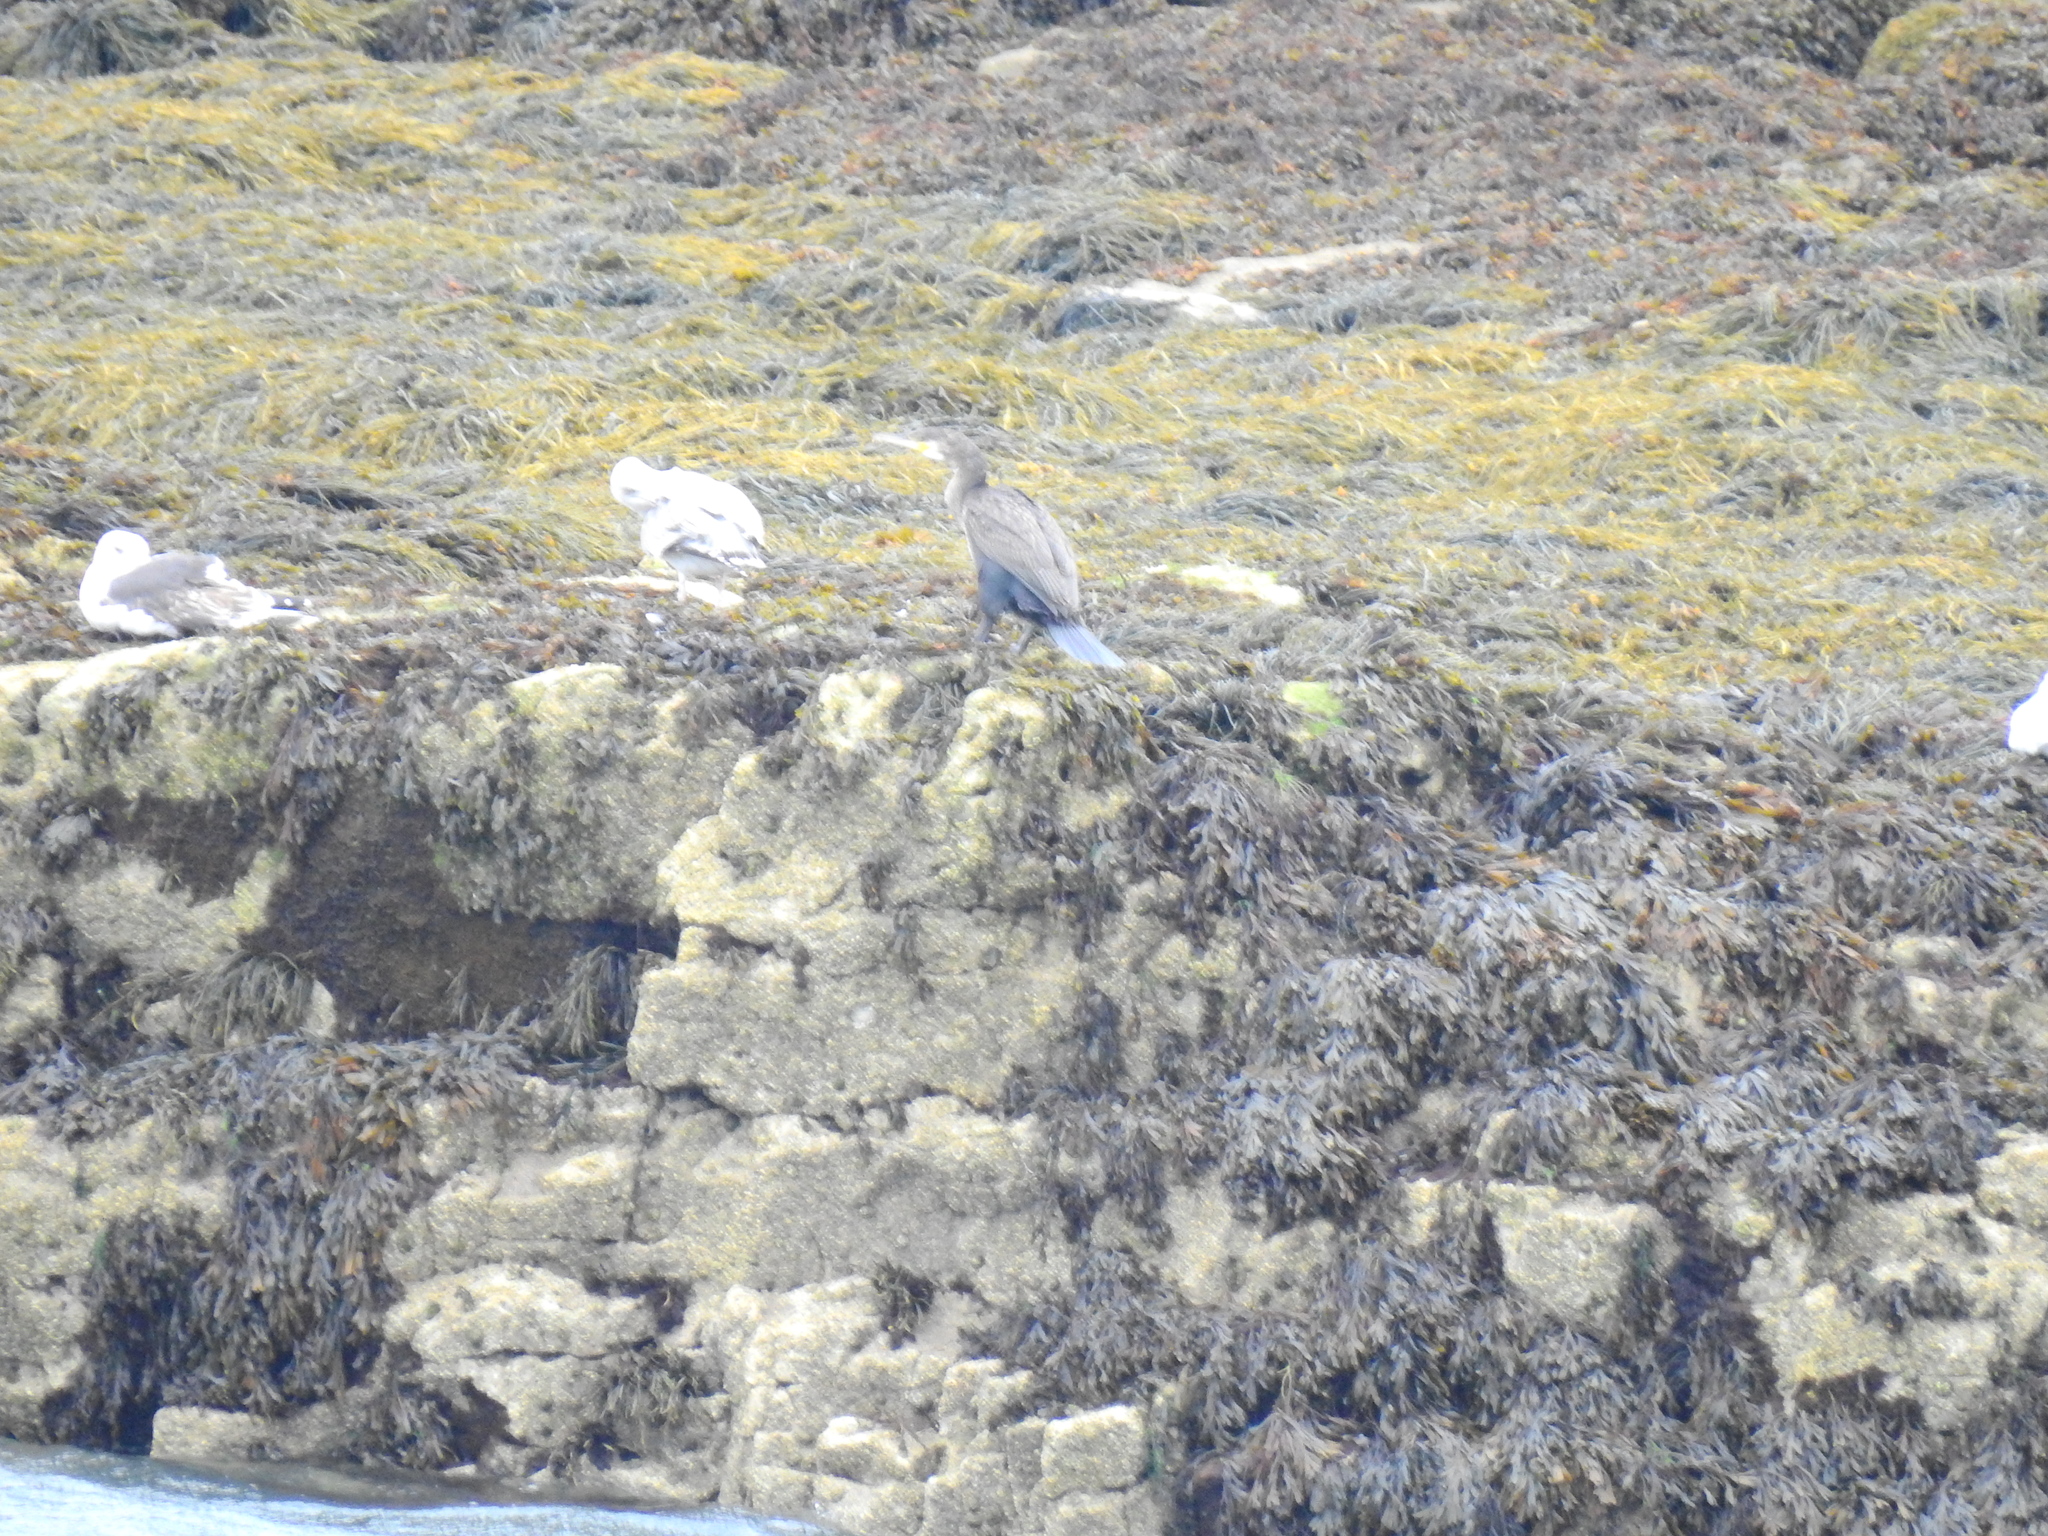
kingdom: Animalia
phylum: Chordata
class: Aves
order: Suliformes
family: Phalacrocoracidae
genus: Phalacrocorax
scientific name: Phalacrocorax carbo
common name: Great cormorant
